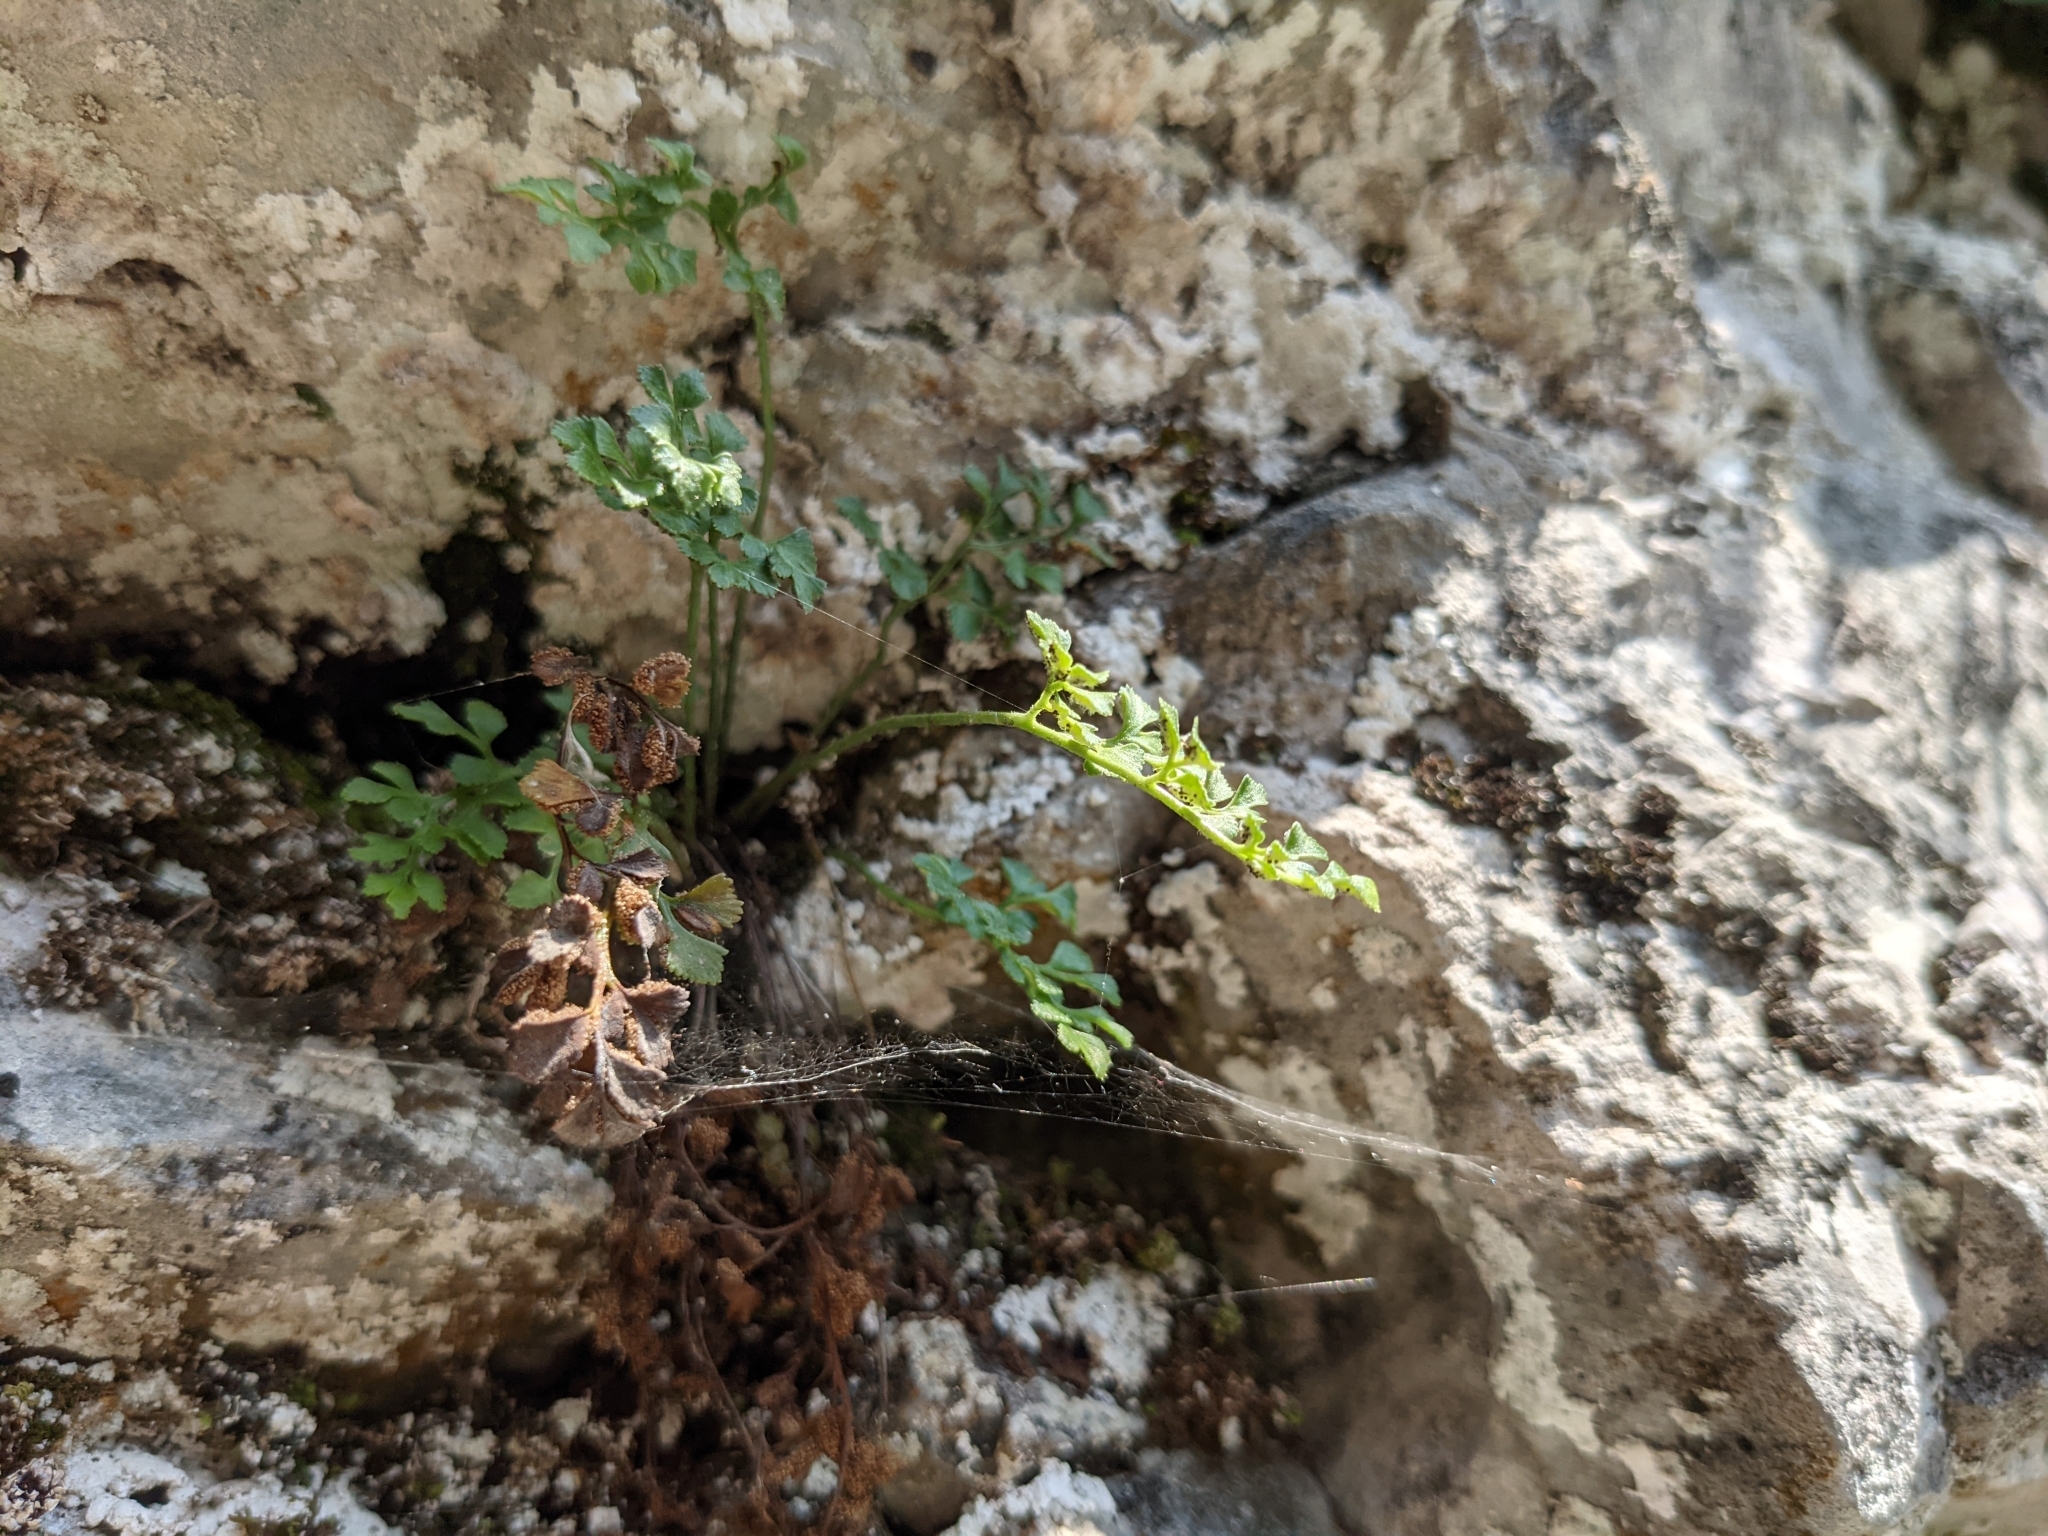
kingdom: Plantae
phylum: Tracheophyta
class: Polypodiopsida
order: Polypodiales
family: Aspleniaceae
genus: Asplenium
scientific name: Asplenium ruta-muraria
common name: Wall-rue
